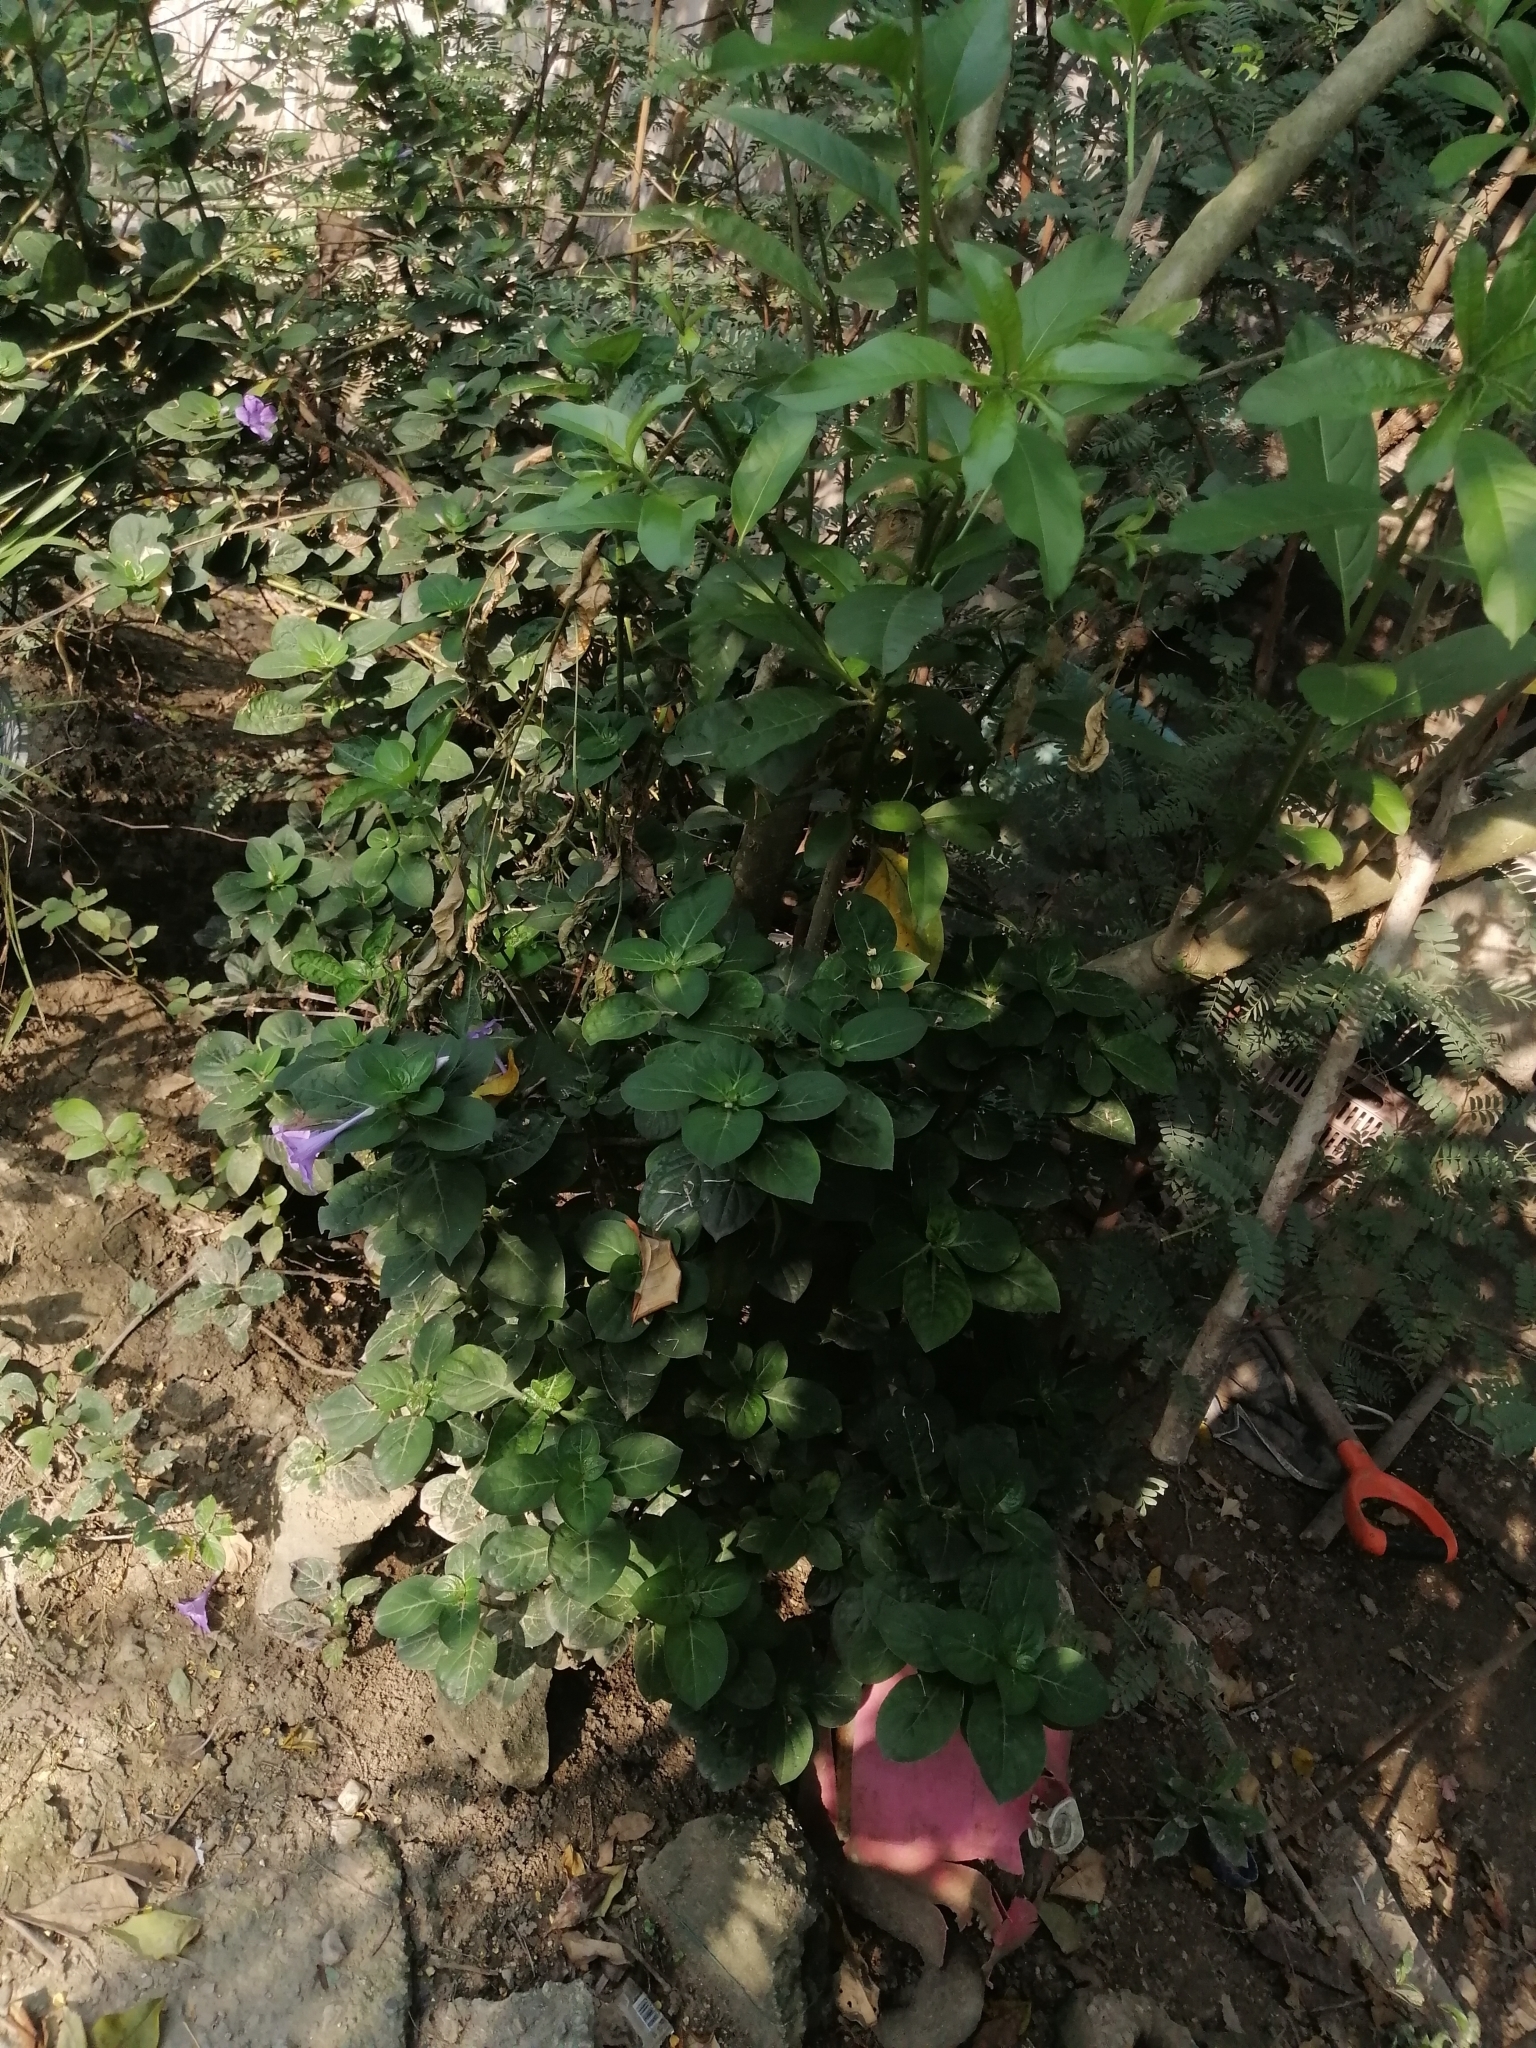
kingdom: Plantae
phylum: Tracheophyta
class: Magnoliopsida
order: Lamiales
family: Acanthaceae
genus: Barleria
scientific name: Barleria cristata
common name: Crested philippine violet
